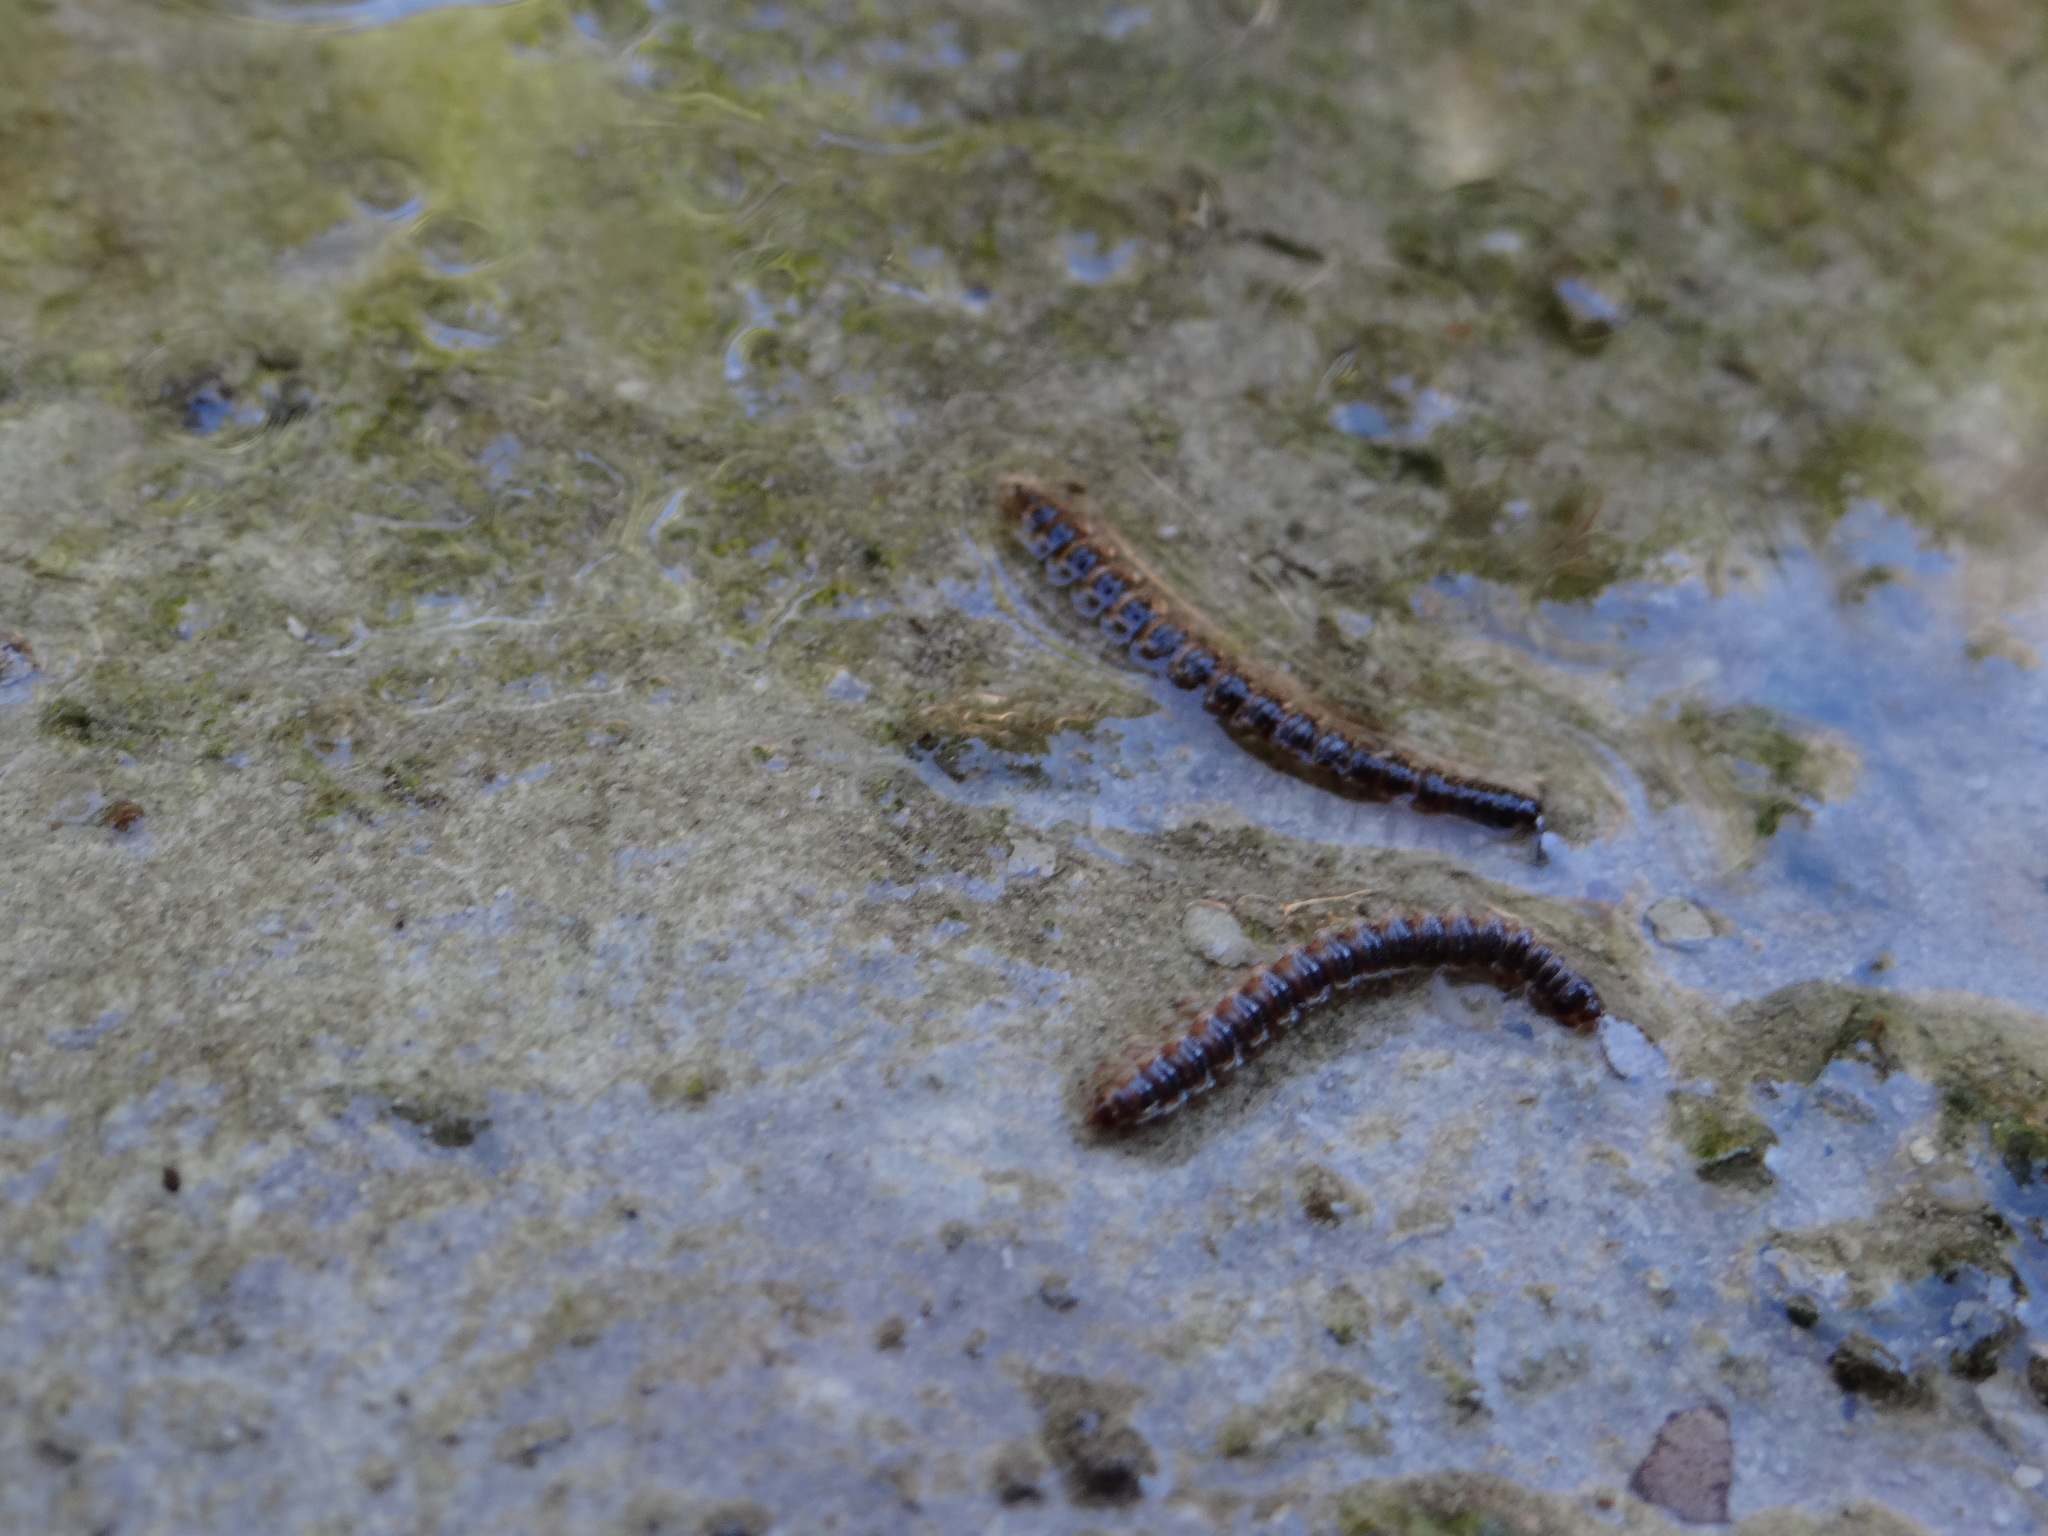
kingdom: Animalia
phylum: Arthropoda
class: Diplopoda
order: Polydesmida
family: Paradoxosomatidae
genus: Oxidus
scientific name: Oxidus gracilis
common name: Greenhouse millipede
